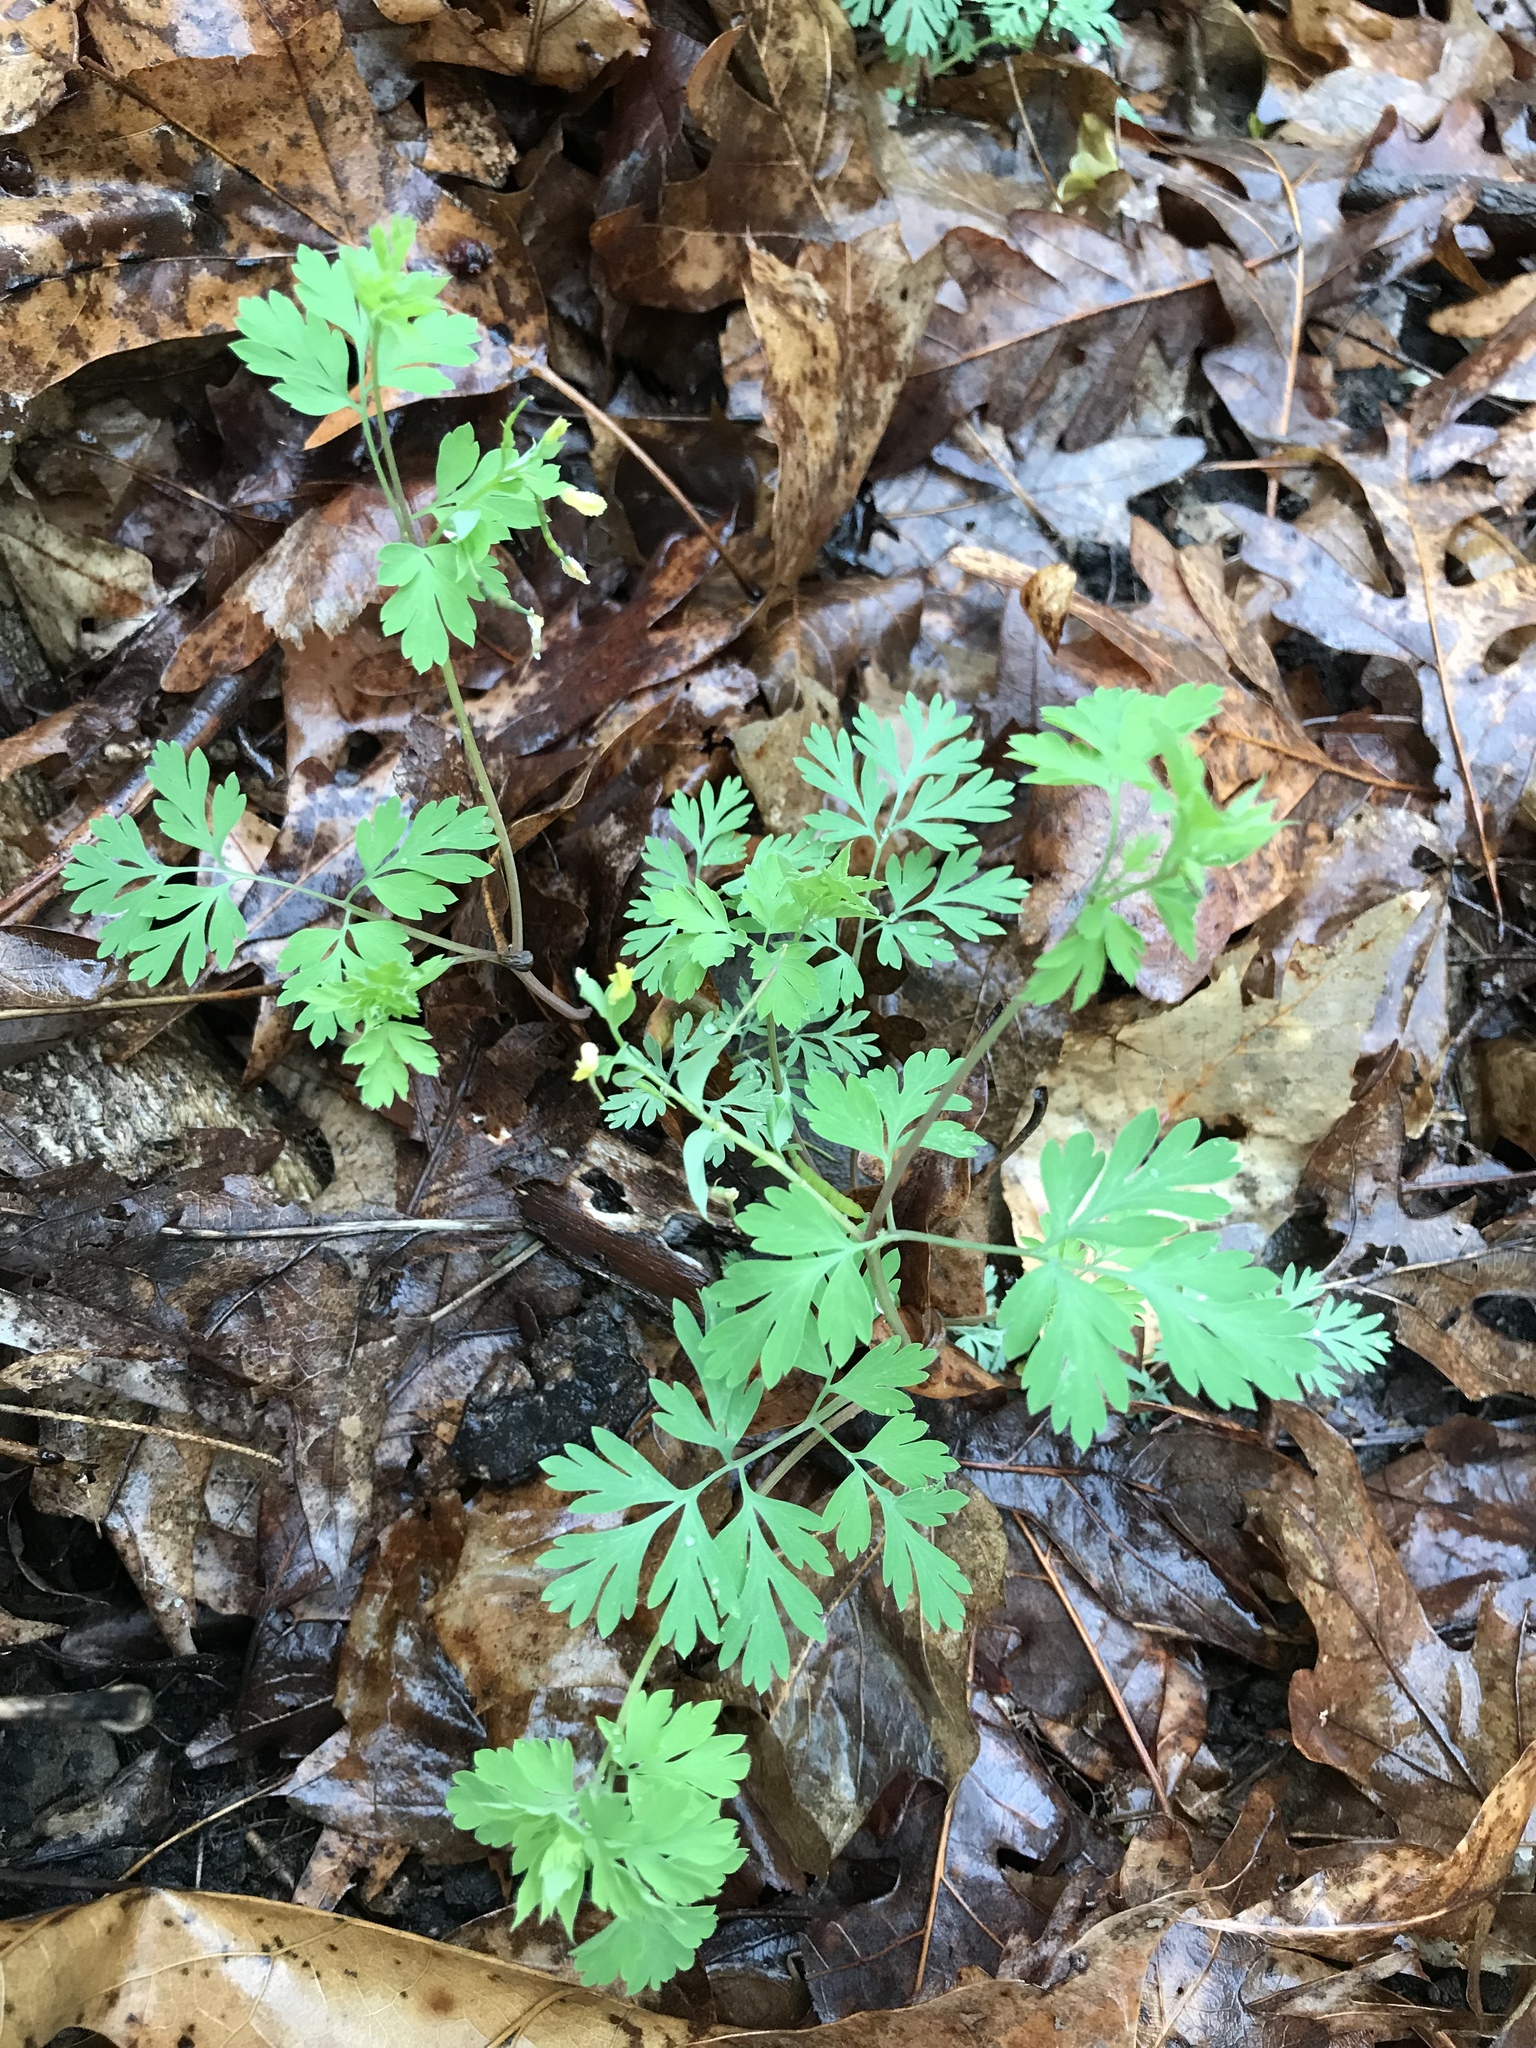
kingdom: Plantae
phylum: Tracheophyta
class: Magnoliopsida
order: Ranunculales
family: Papaveraceae
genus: Corydalis
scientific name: Corydalis flavula
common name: Yellow corydalis
